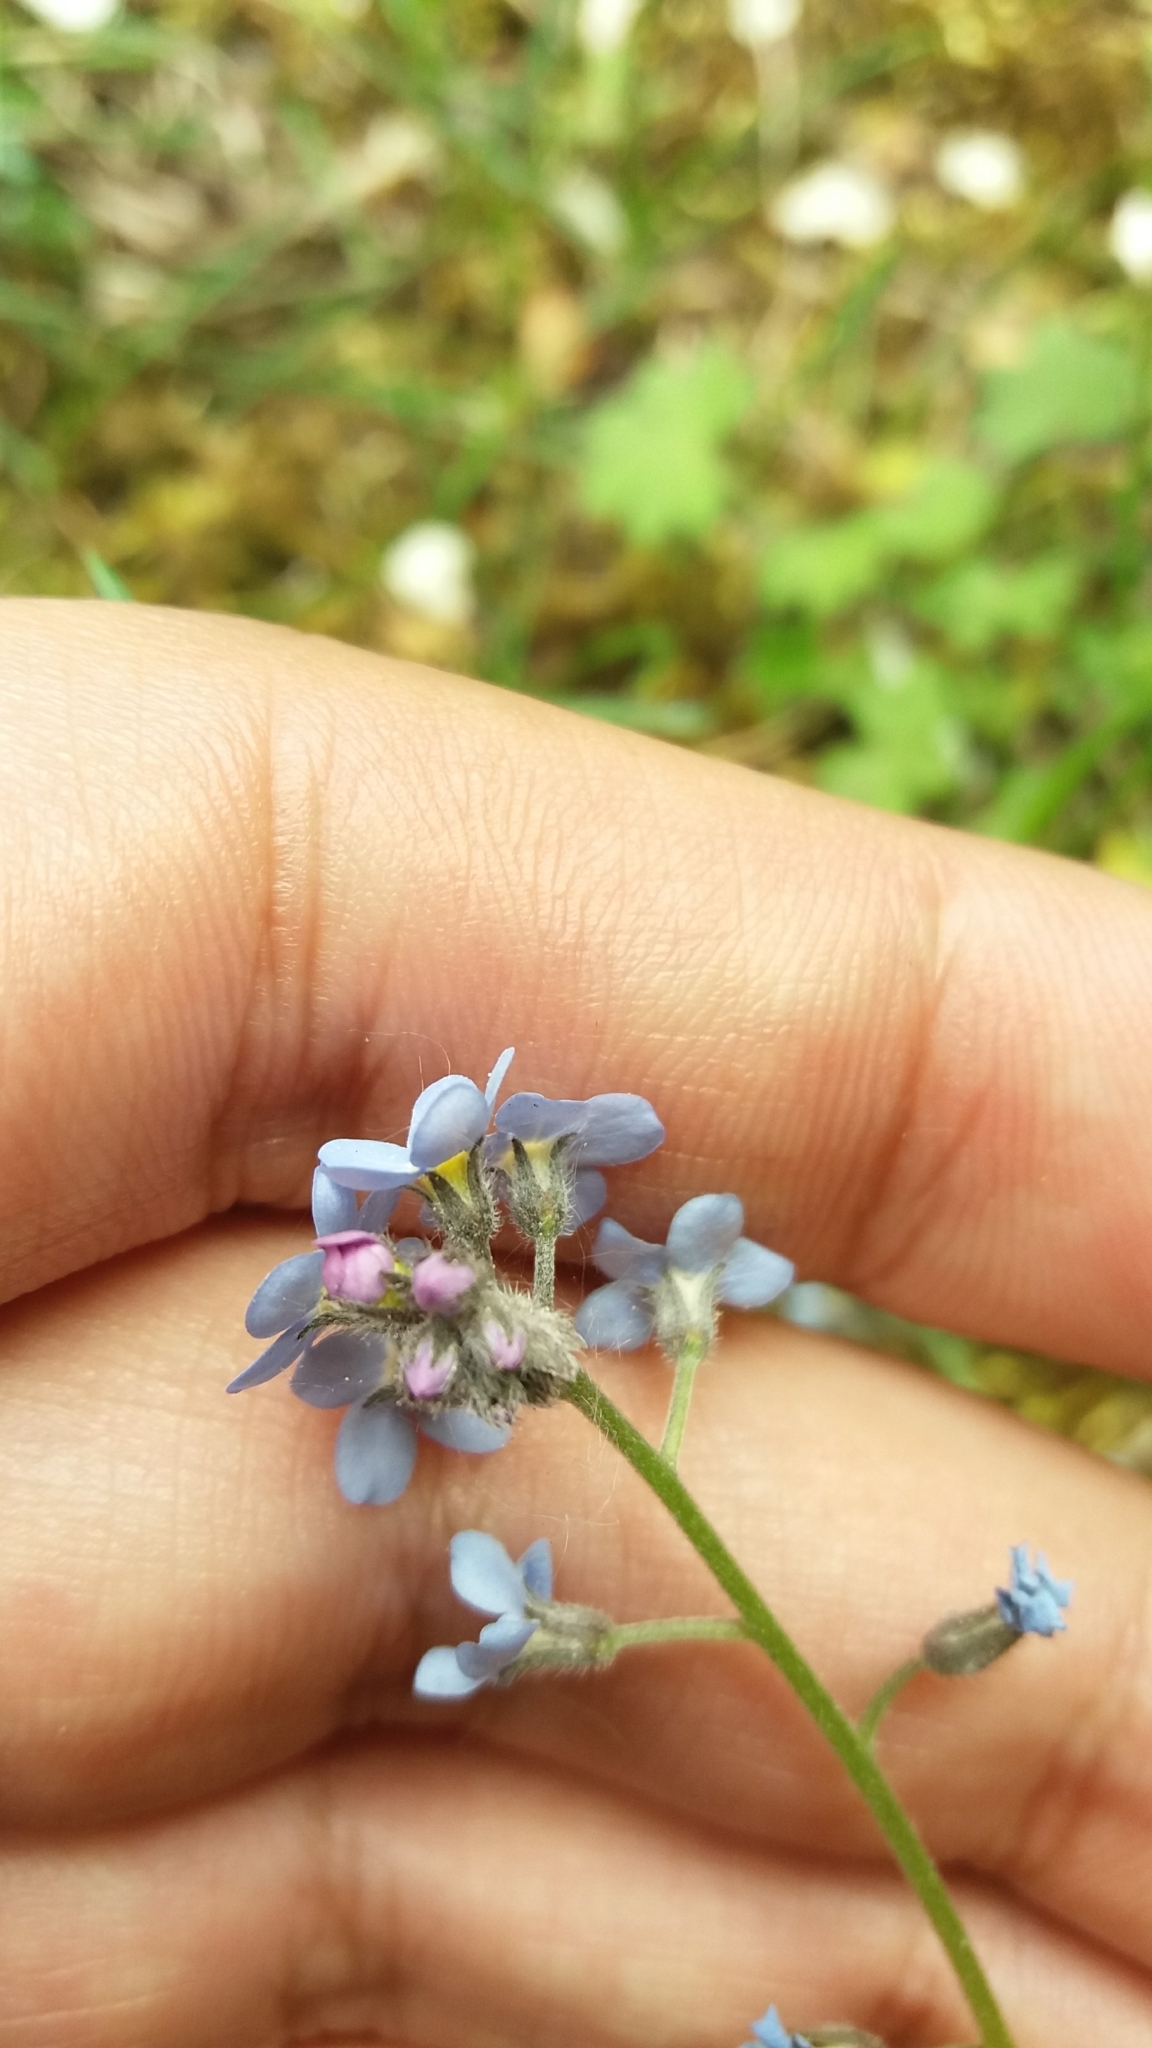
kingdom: Plantae
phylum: Tracheophyta
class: Magnoliopsida
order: Boraginales
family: Boraginaceae
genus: Myosotis
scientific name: Myosotis sylvatica
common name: Wood forget-me-not
